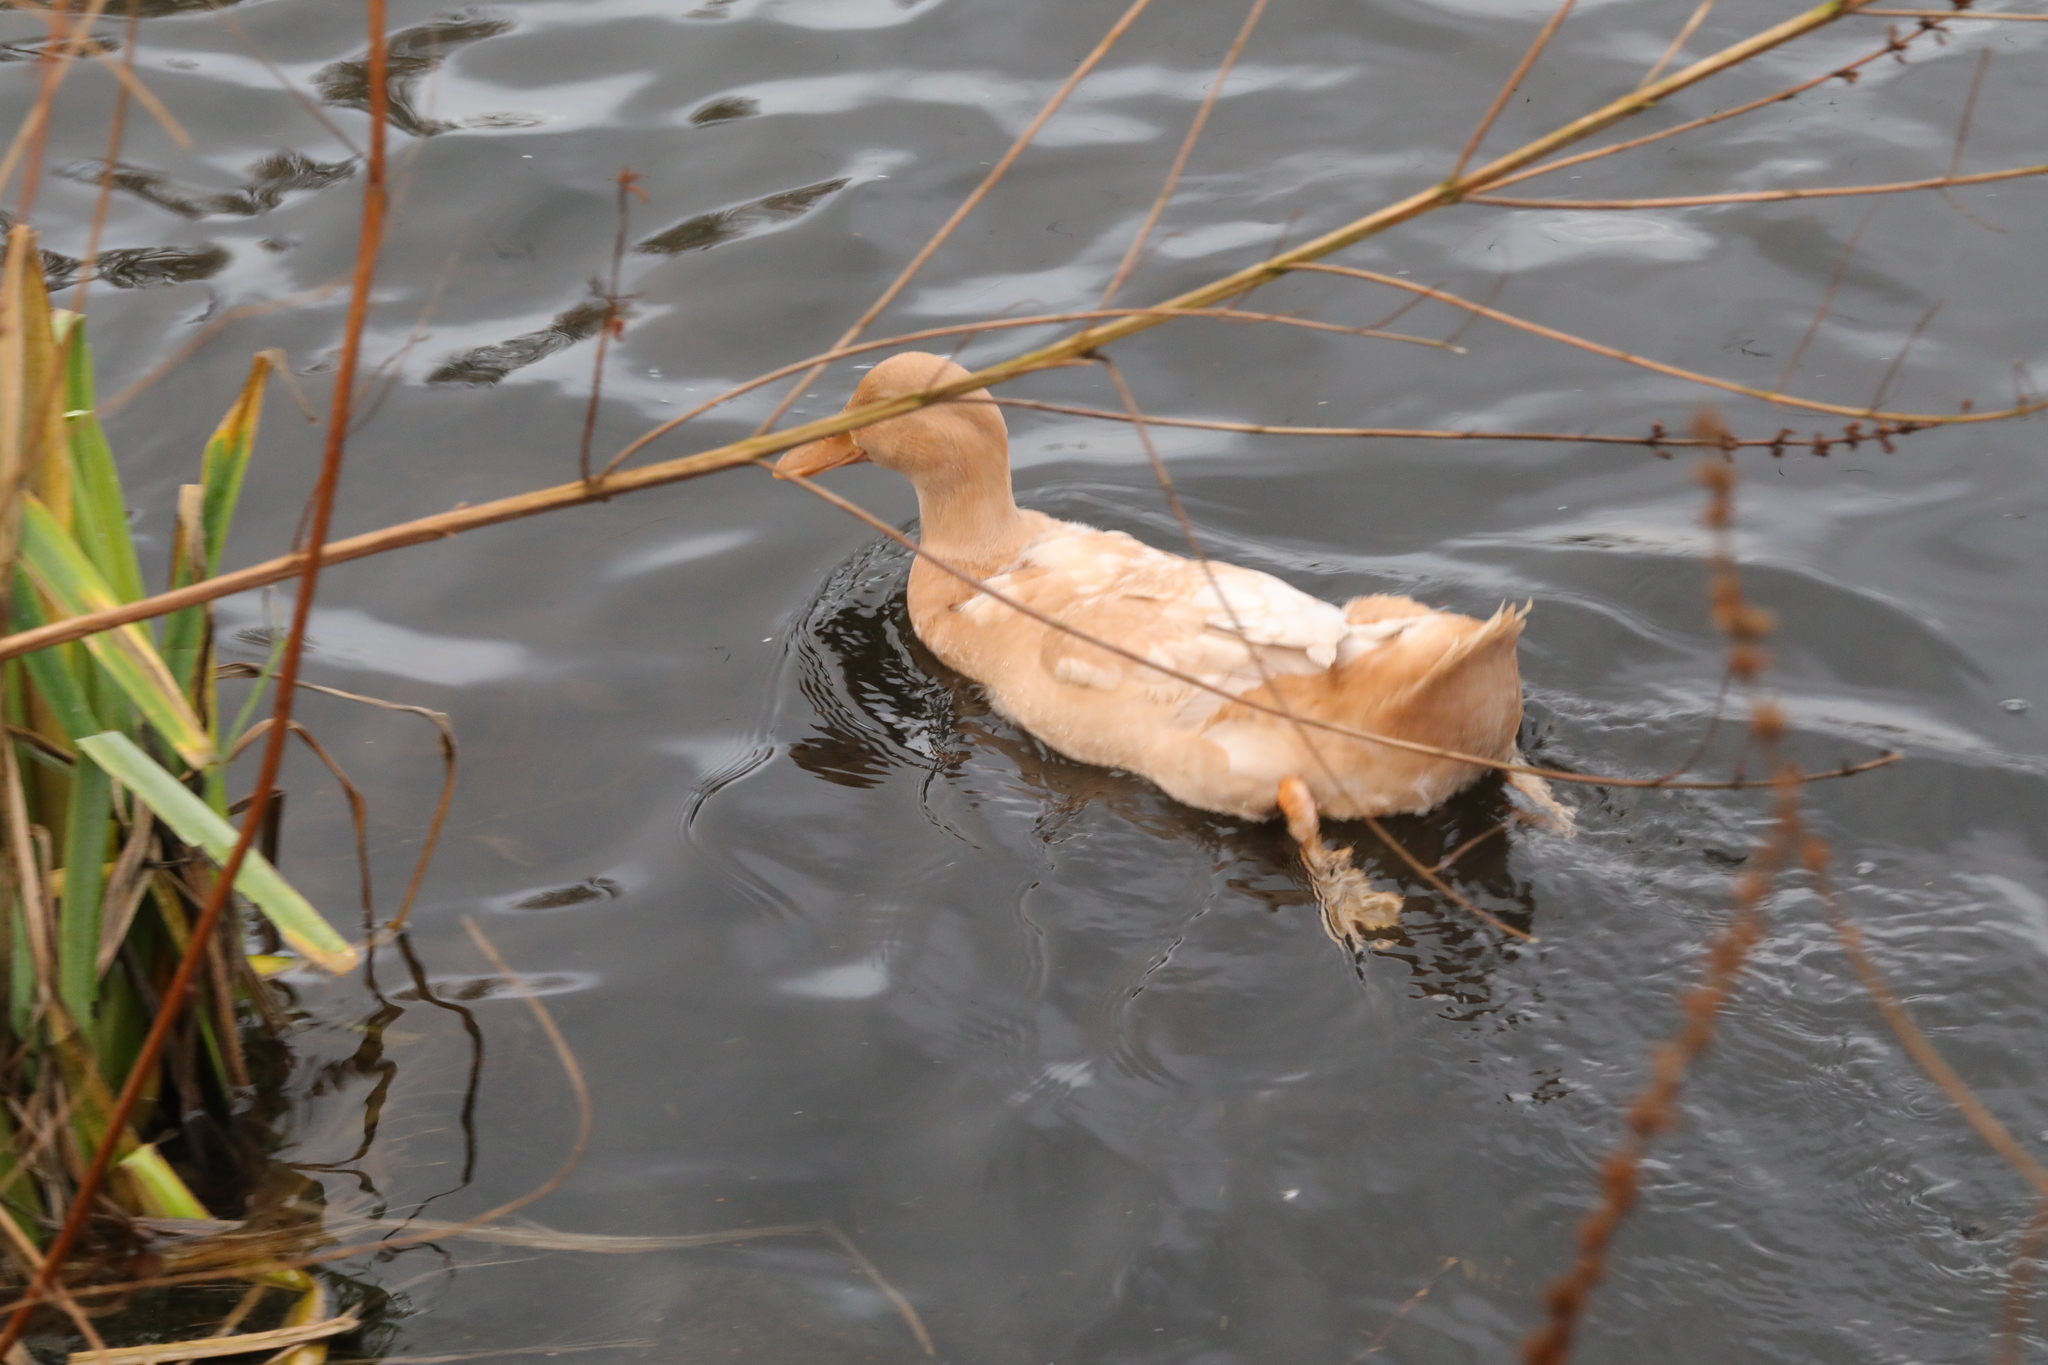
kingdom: Animalia
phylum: Chordata
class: Aves
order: Anseriformes
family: Anatidae
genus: Anas
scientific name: Anas platyrhynchos
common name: Mallard
